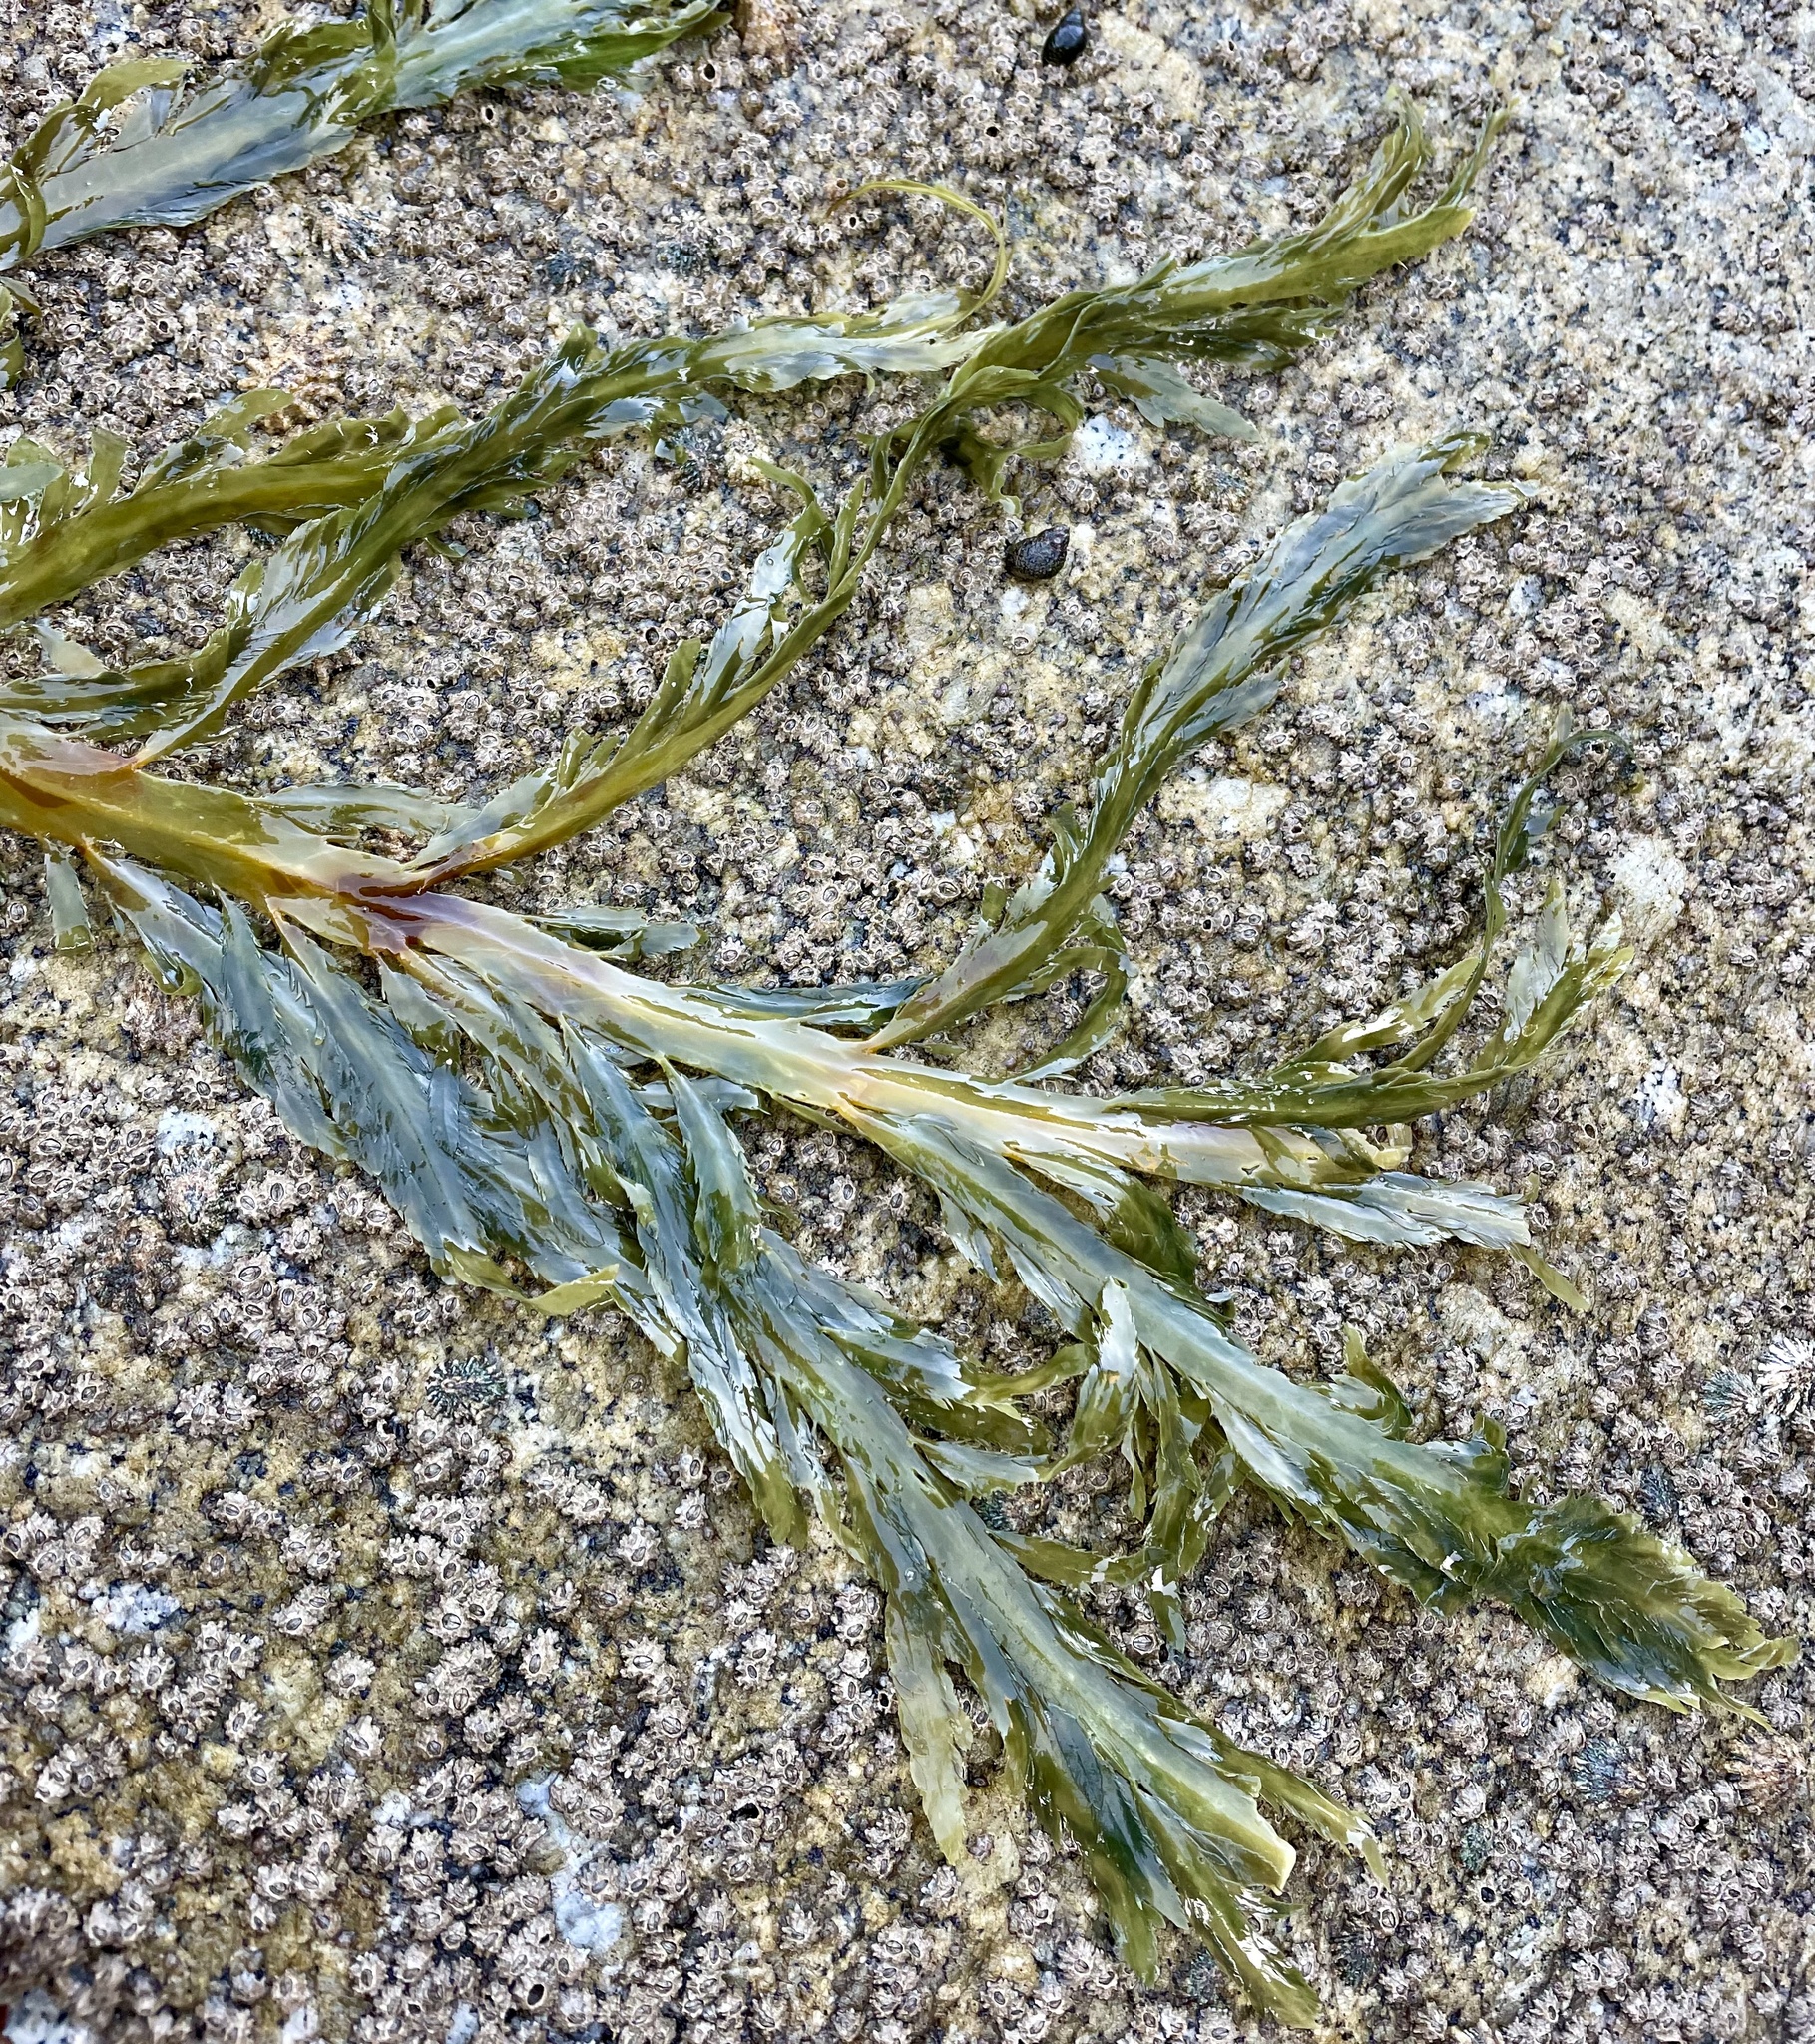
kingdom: Chromista
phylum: Ochrophyta
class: Phaeophyceae
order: Desmarestiales
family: Desmarestiaceae
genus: Desmarestia
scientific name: Desmarestia ligulata
